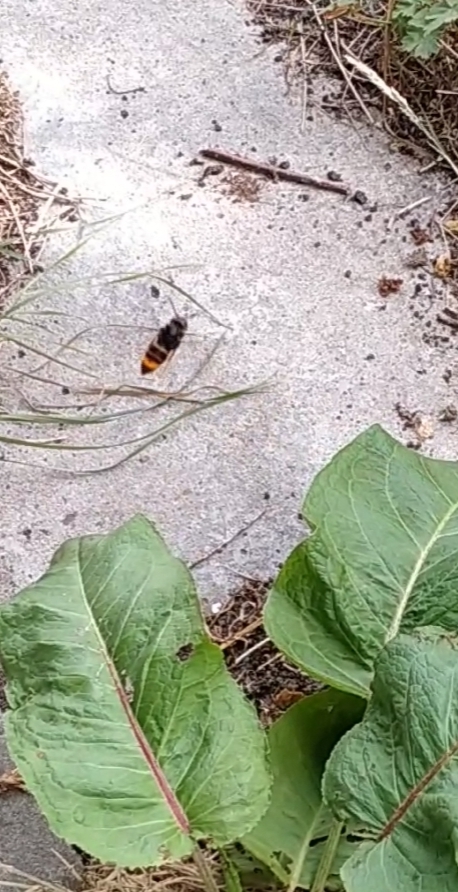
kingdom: Animalia
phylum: Arthropoda
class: Insecta
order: Hymenoptera
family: Vespidae
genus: Vespa
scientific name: Vespa velutina
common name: Asian hornet
